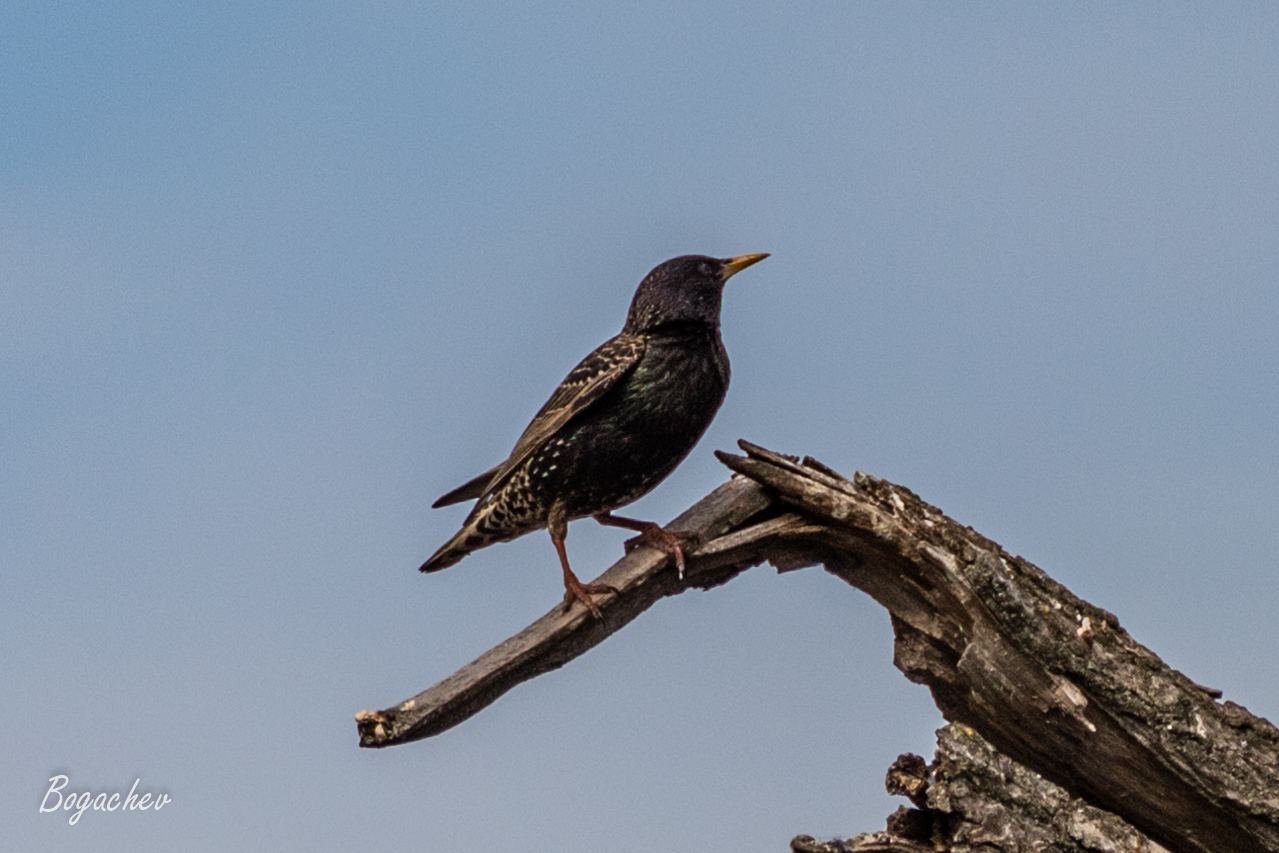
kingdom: Animalia
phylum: Chordata
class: Aves
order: Passeriformes
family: Sturnidae
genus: Sturnus
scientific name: Sturnus vulgaris
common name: Common starling
